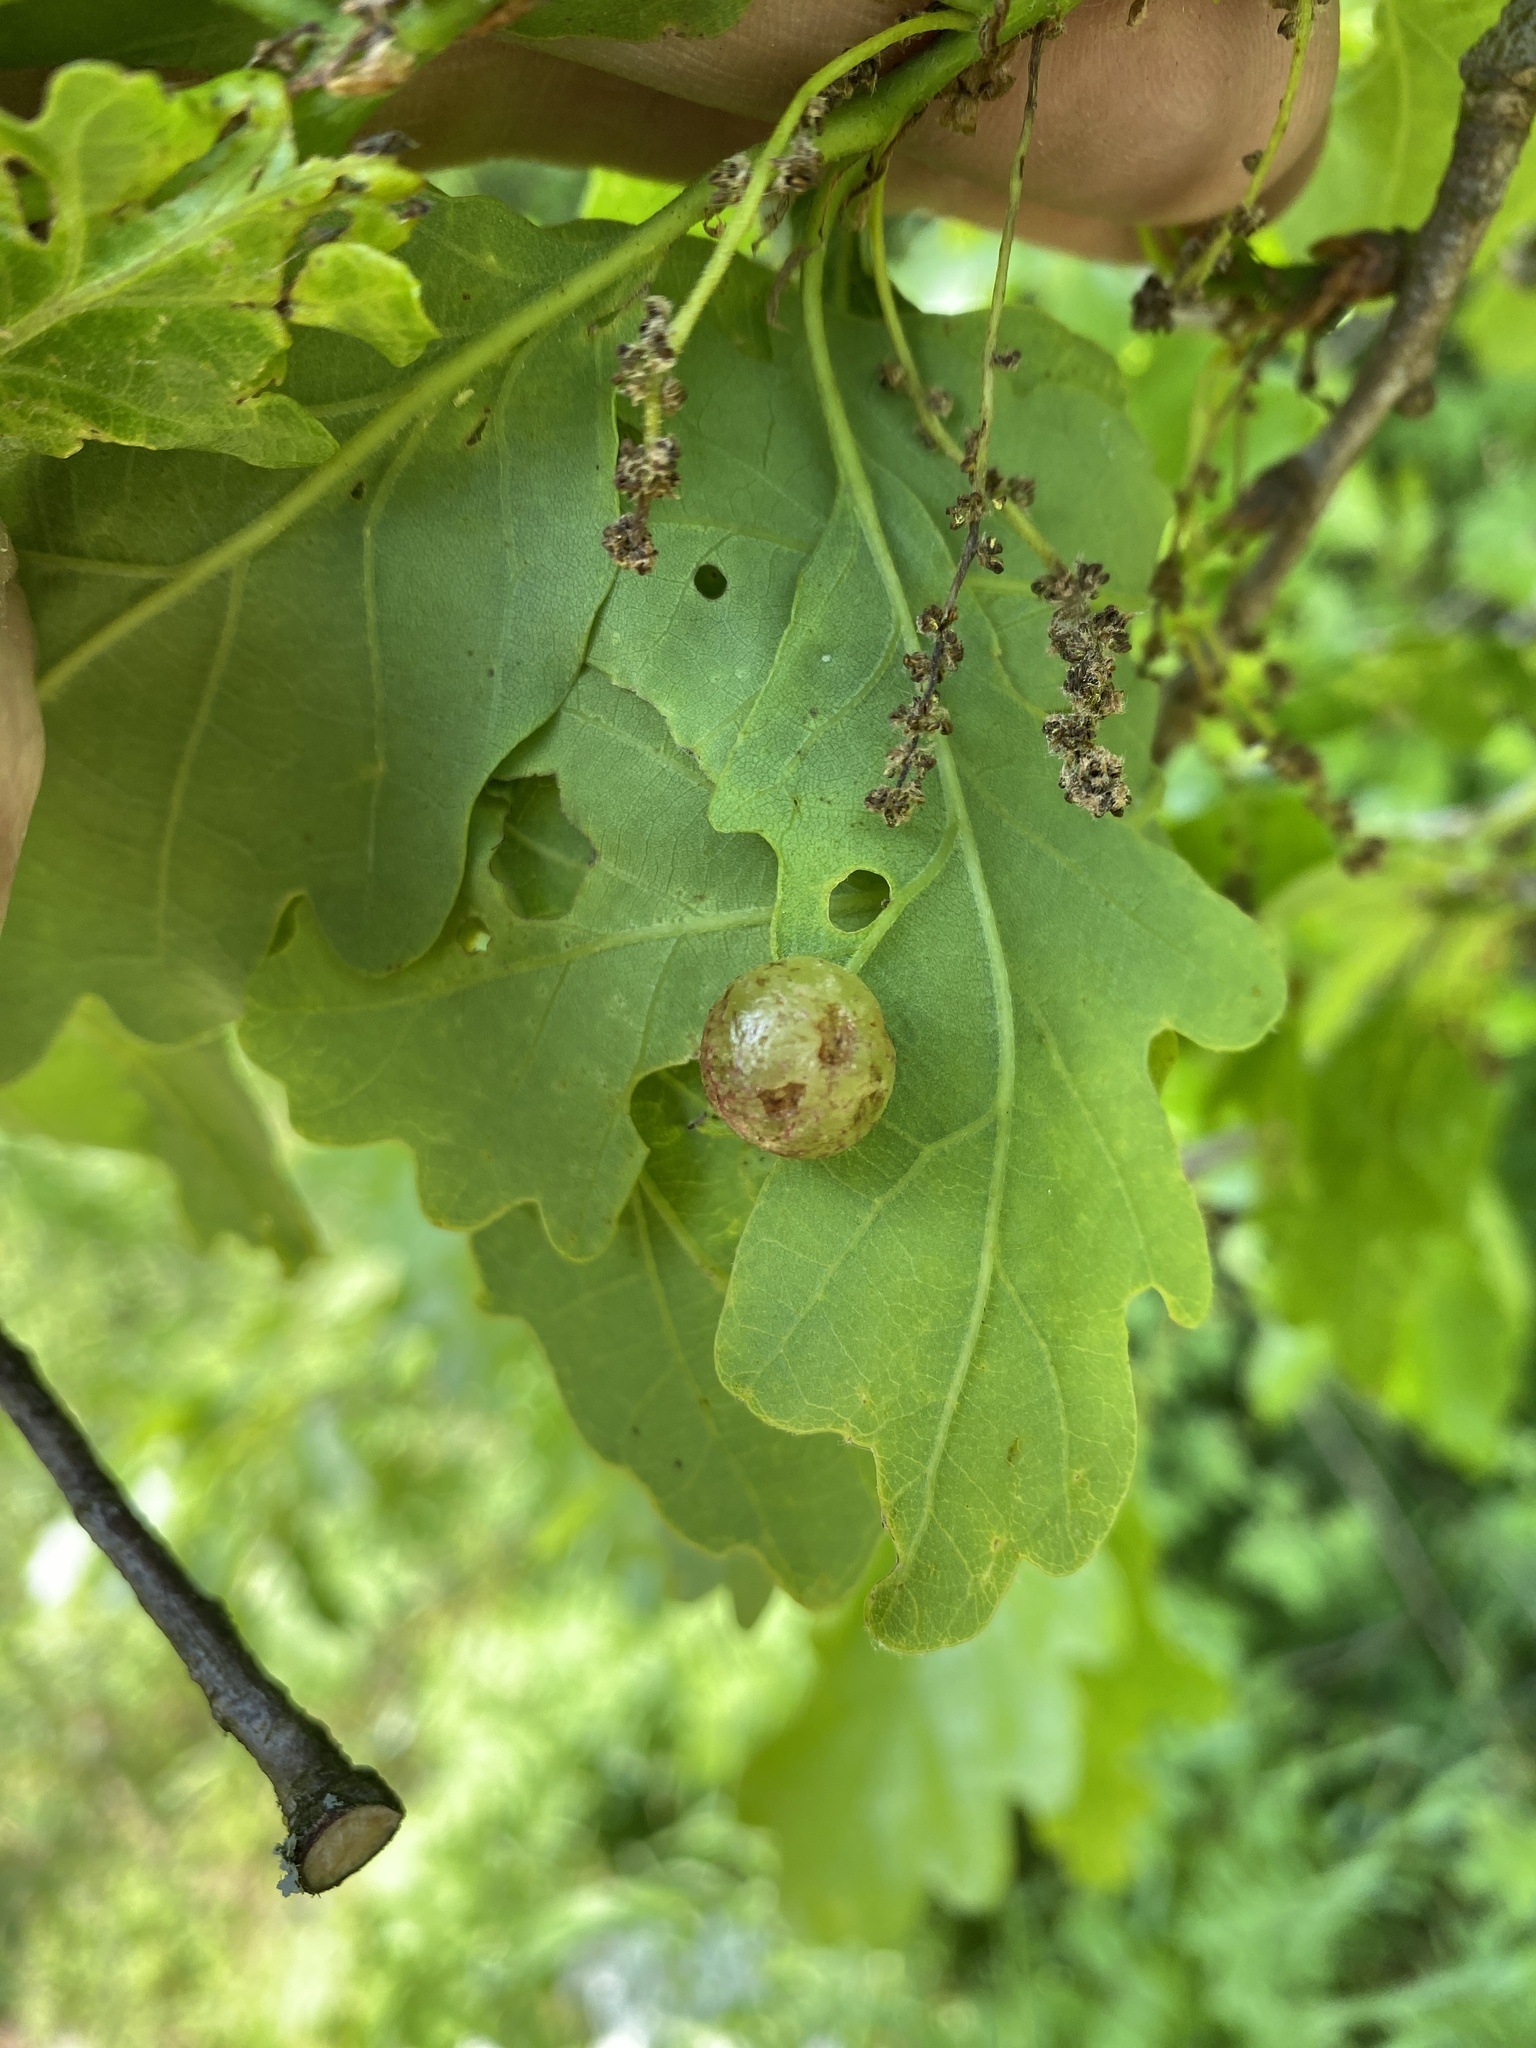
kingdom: Animalia
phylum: Arthropoda
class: Insecta
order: Hymenoptera
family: Cynipidae
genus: Neuroterus
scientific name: Neuroterus quercusbaccarum
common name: Common spangle gall
